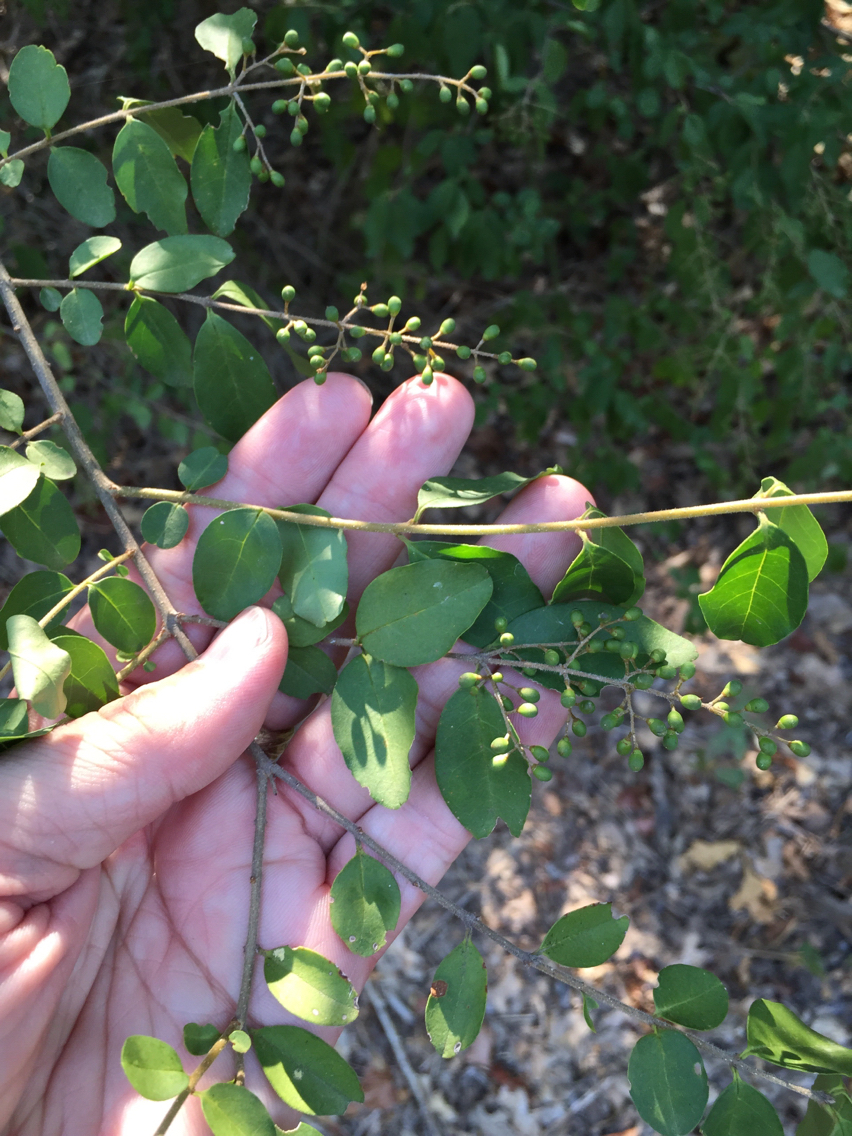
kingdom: Plantae
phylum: Tracheophyta
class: Magnoliopsida
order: Lamiales
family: Oleaceae
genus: Ligustrum
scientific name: Ligustrum sinense
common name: Chinese privet
